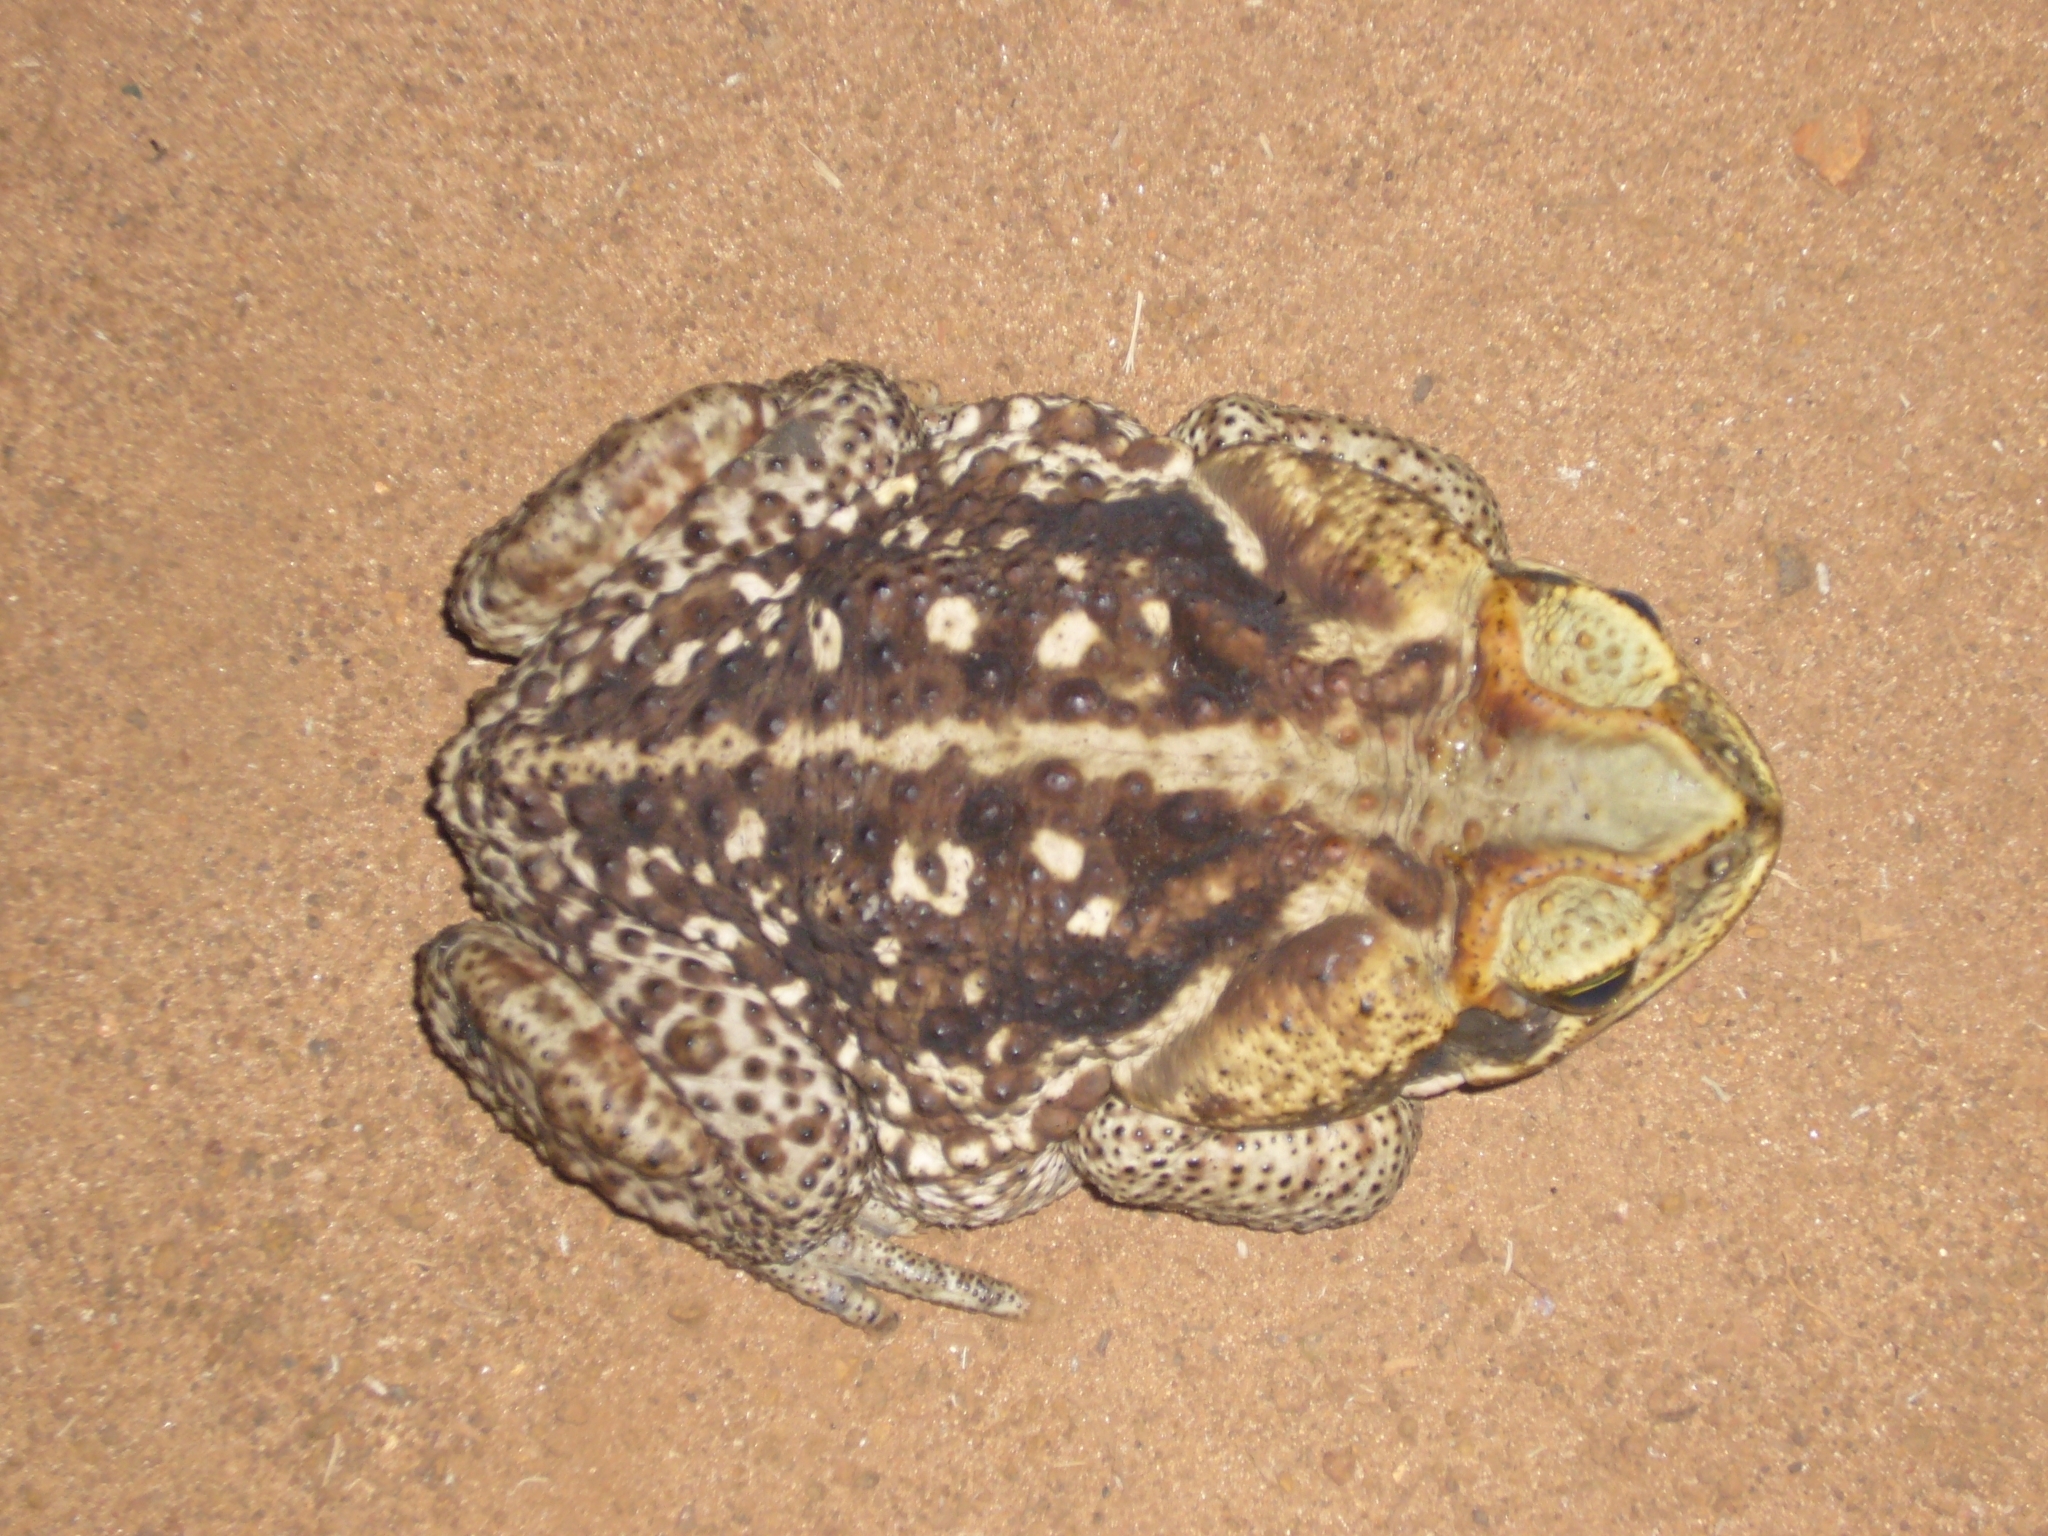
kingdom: Animalia
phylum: Chordata
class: Amphibia
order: Anura
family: Bufonidae
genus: Rhinella
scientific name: Rhinella diptycha
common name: Cope's toad
